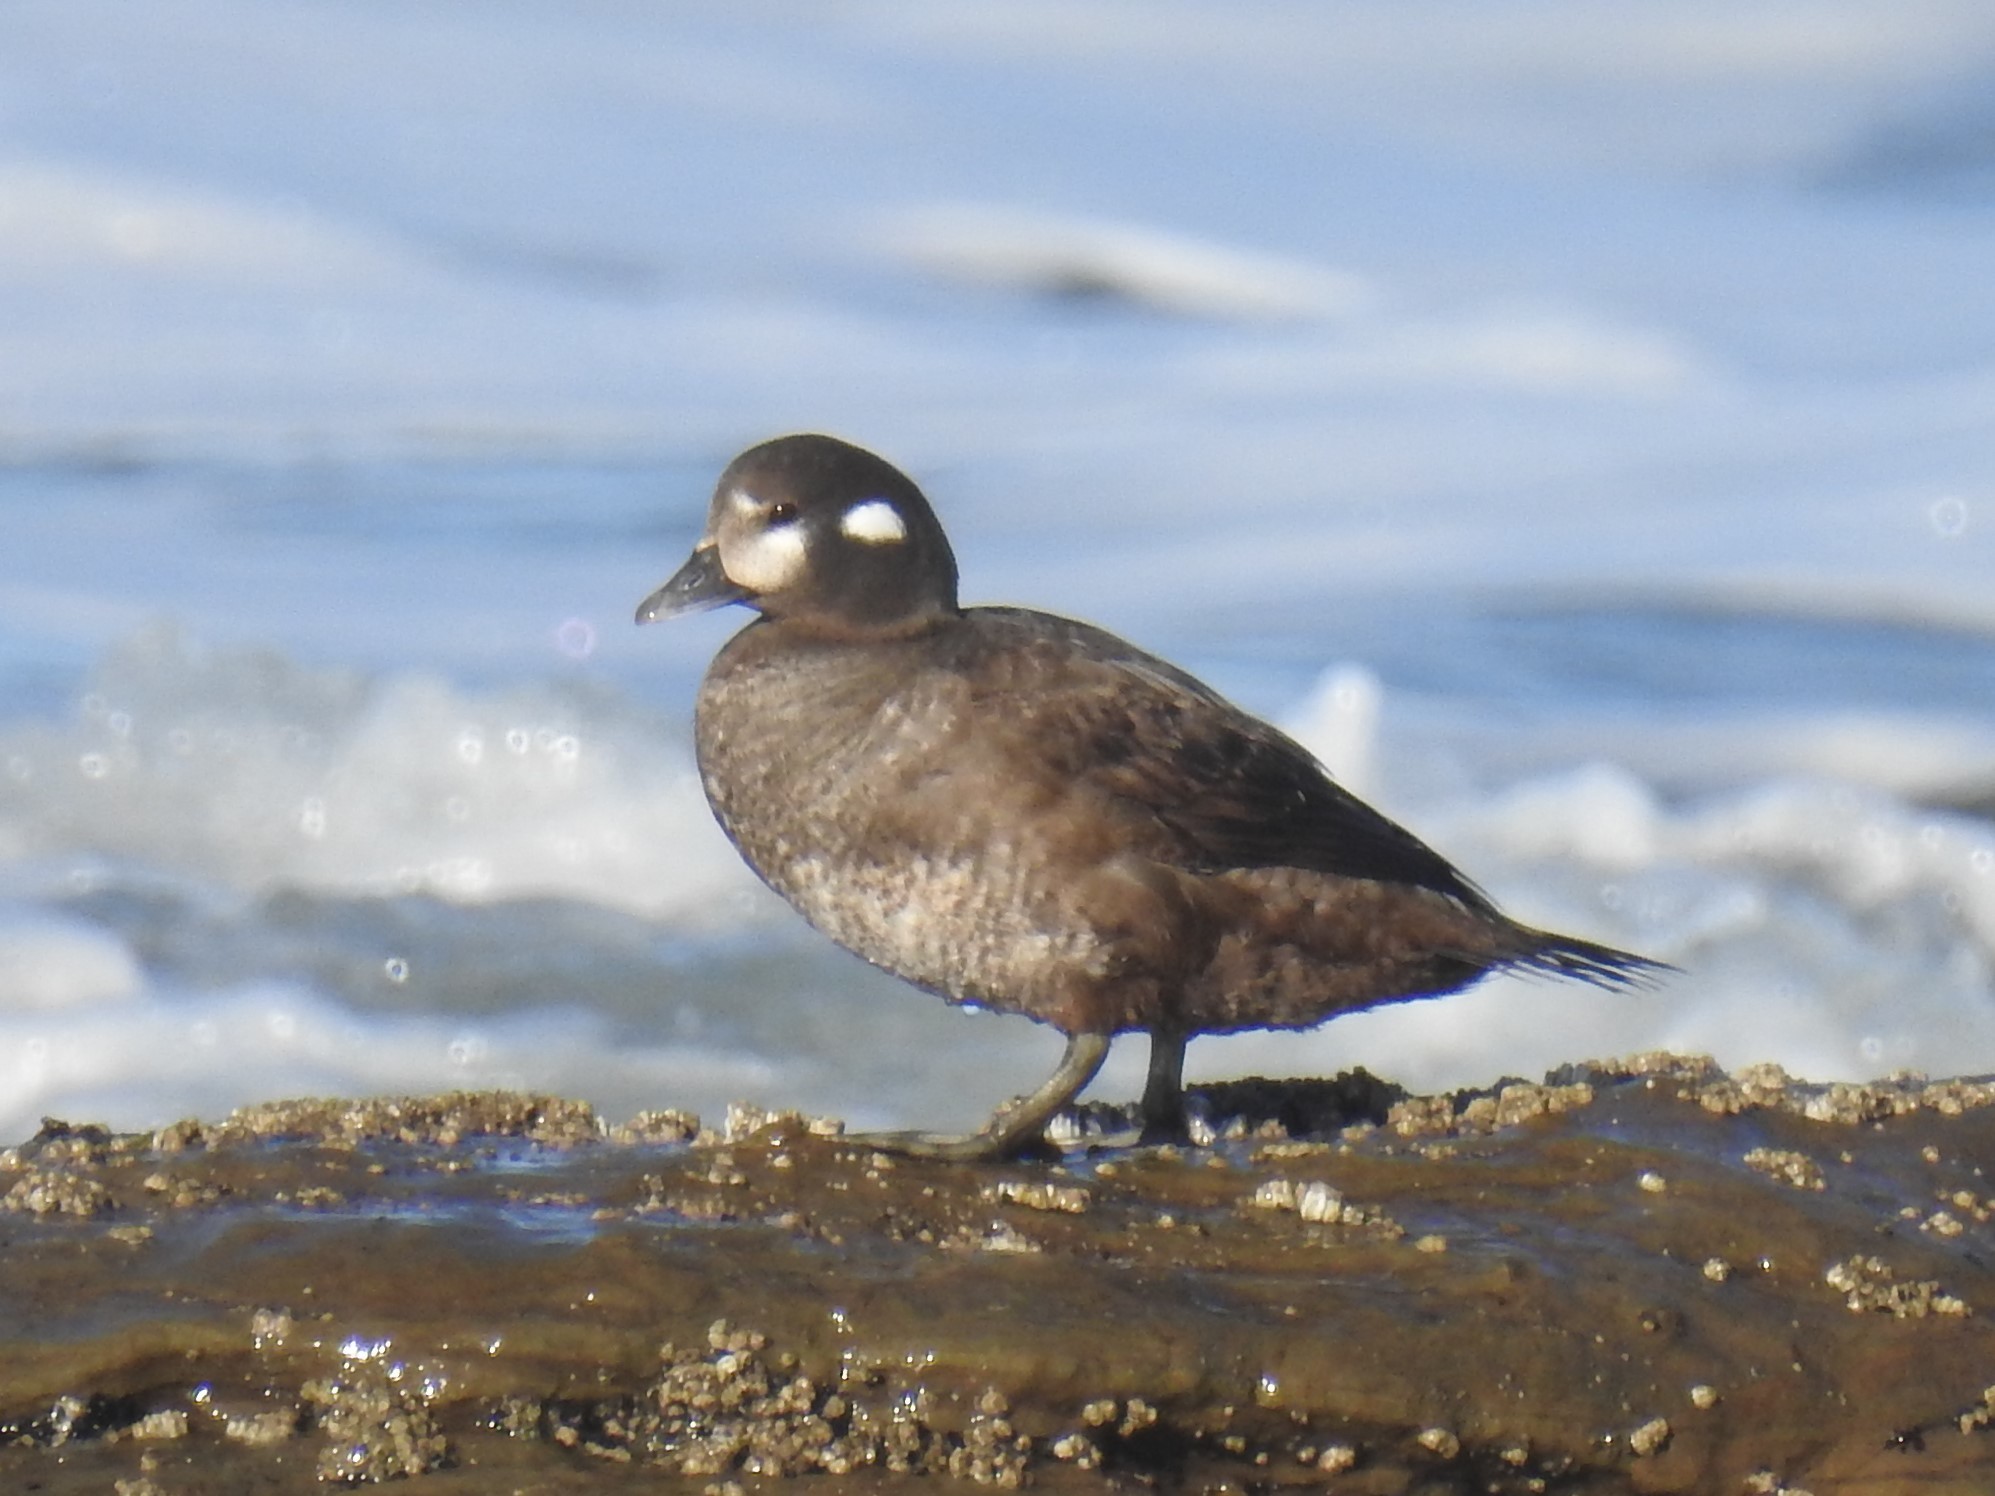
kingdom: Animalia
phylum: Chordata
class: Aves
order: Anseriformes
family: Anatidae
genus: Histrionicus
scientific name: Histrionicus histrionicus
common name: Harlequin duck
